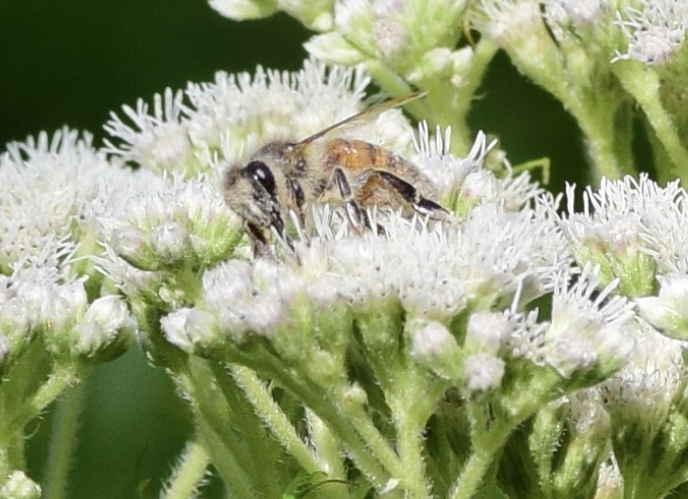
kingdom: Animalia
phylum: Arthropoda
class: Insecta
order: Hymenoptera
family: Apidae
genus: Apis
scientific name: Apis mellifera
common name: Honey bee
